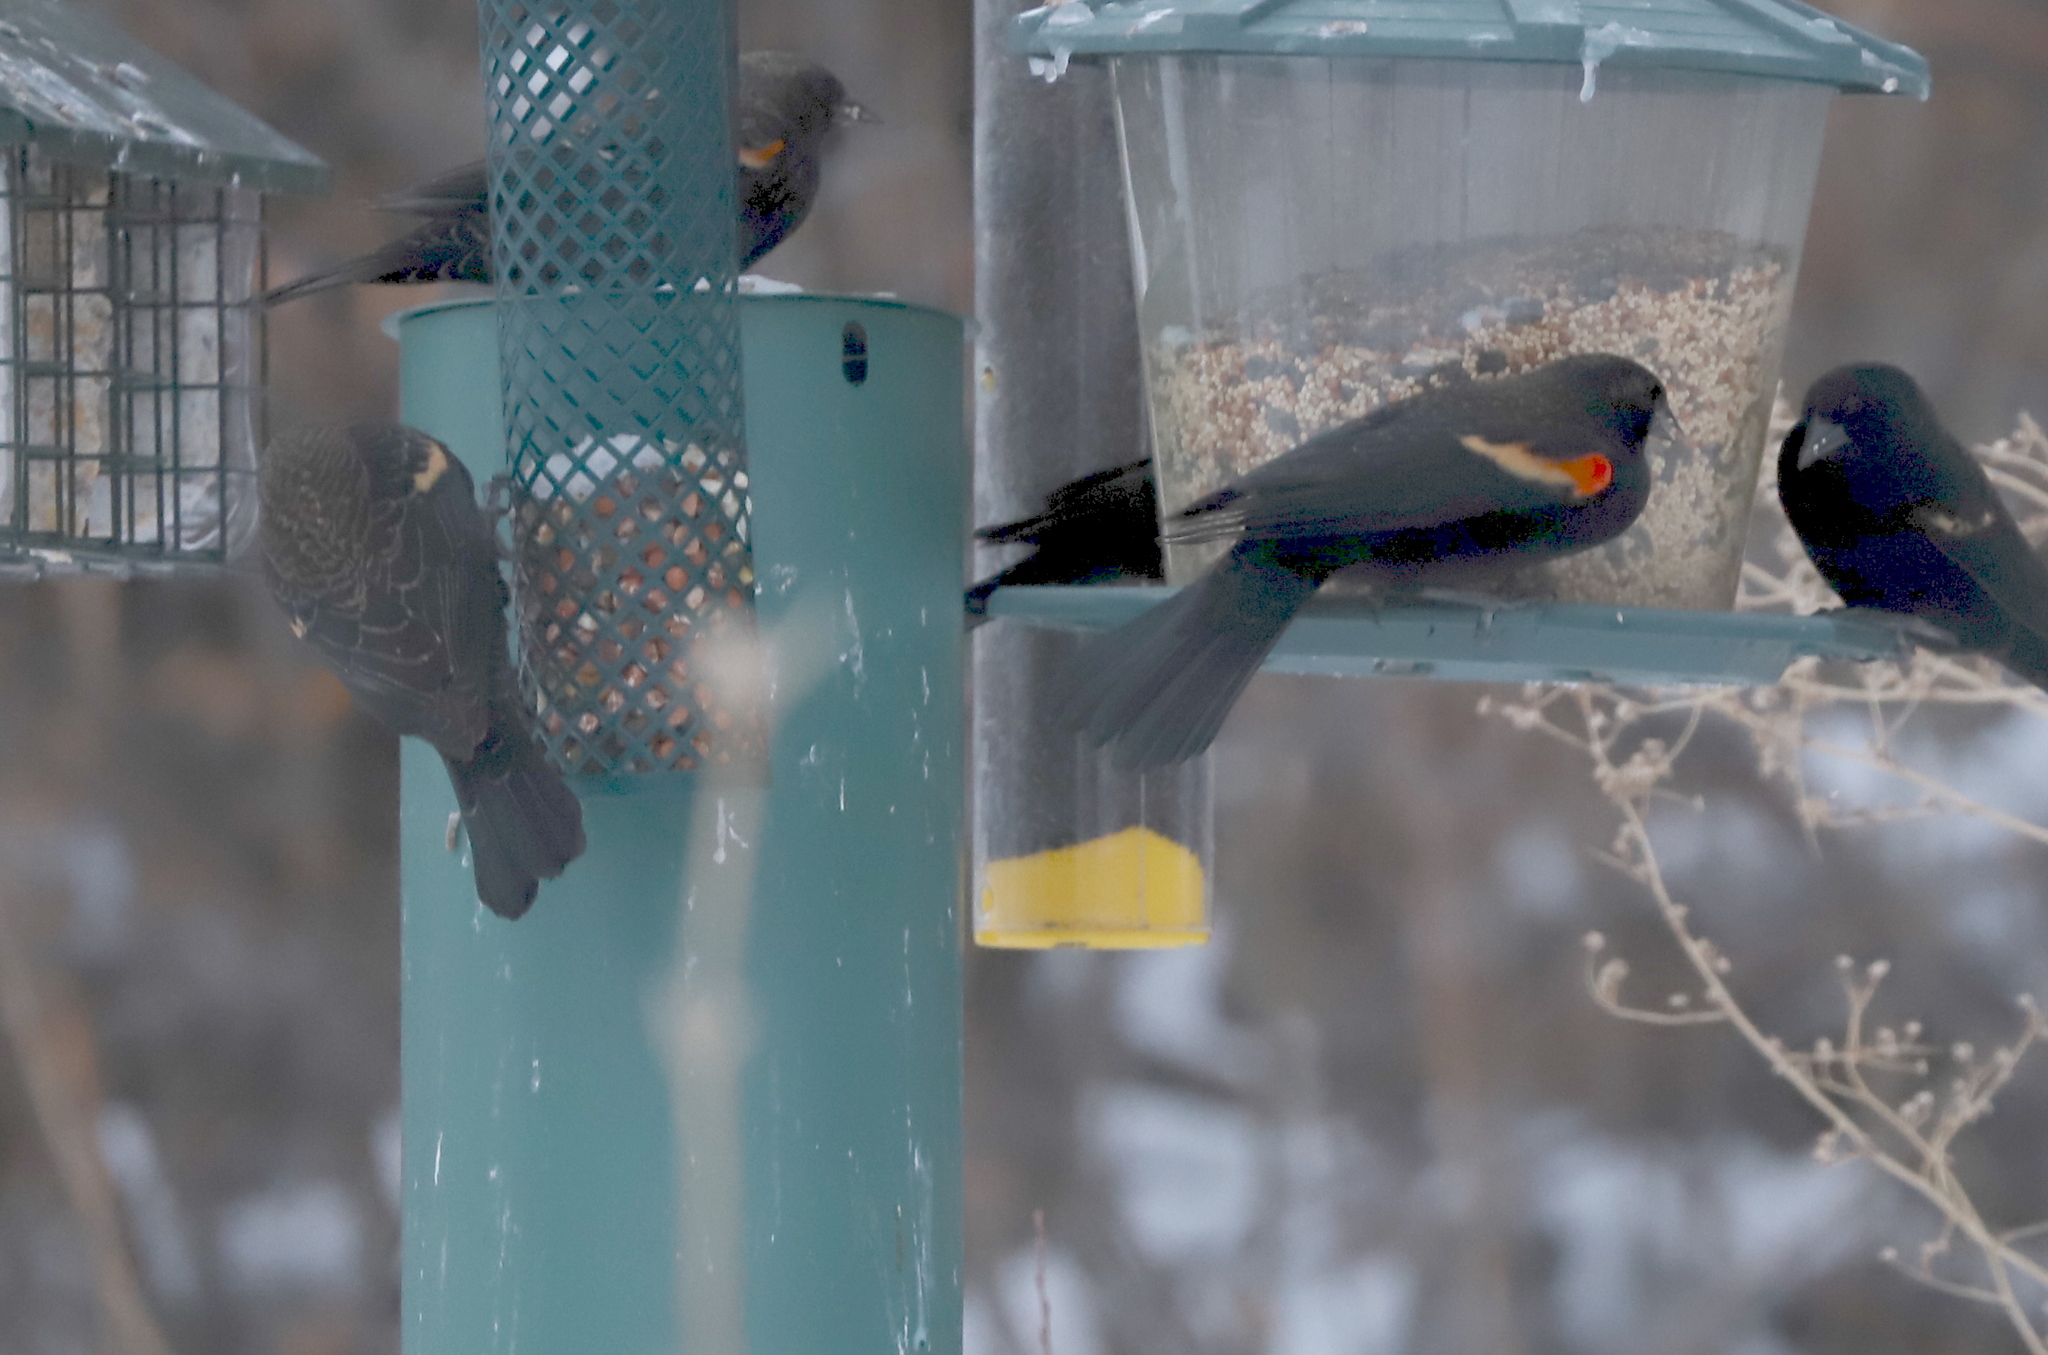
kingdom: Animalia
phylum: Chordata
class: Aves
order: Passeriformes
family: Icteridae
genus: Agelaius
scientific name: Agelaius phoeniceus
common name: Red-winged blackbird
